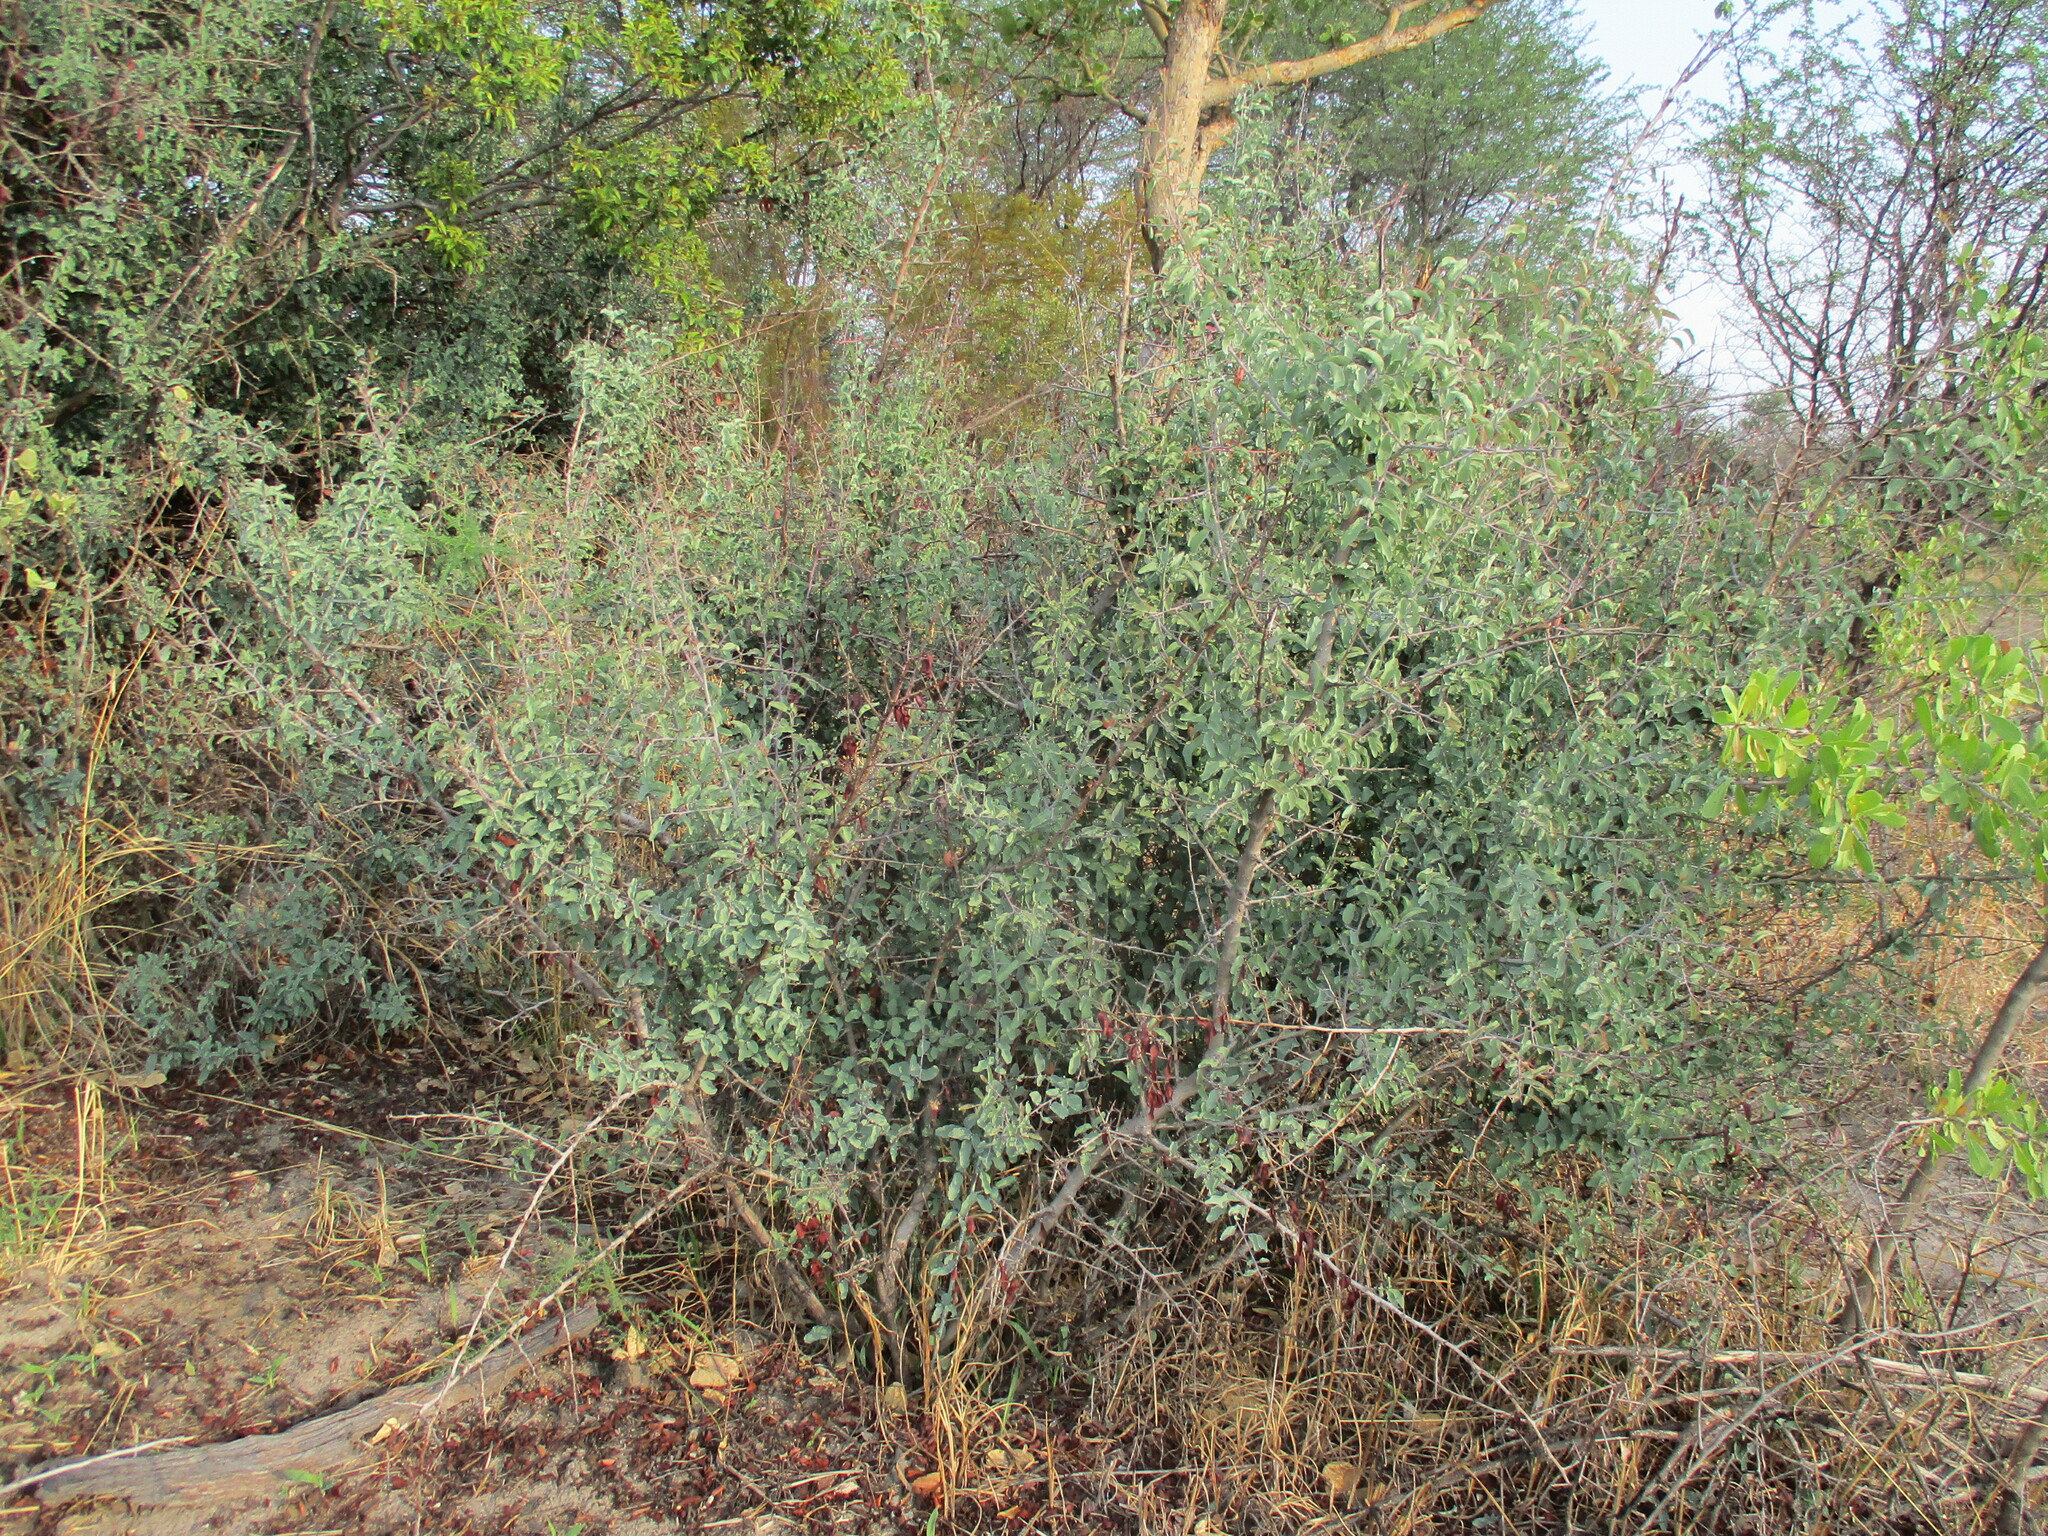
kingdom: Plantae
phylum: Tracheophyta
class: Magnoliopsida
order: Santalales
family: Ximeniaceae
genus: Ximenia
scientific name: Ximenia americana
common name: Tallowwood
